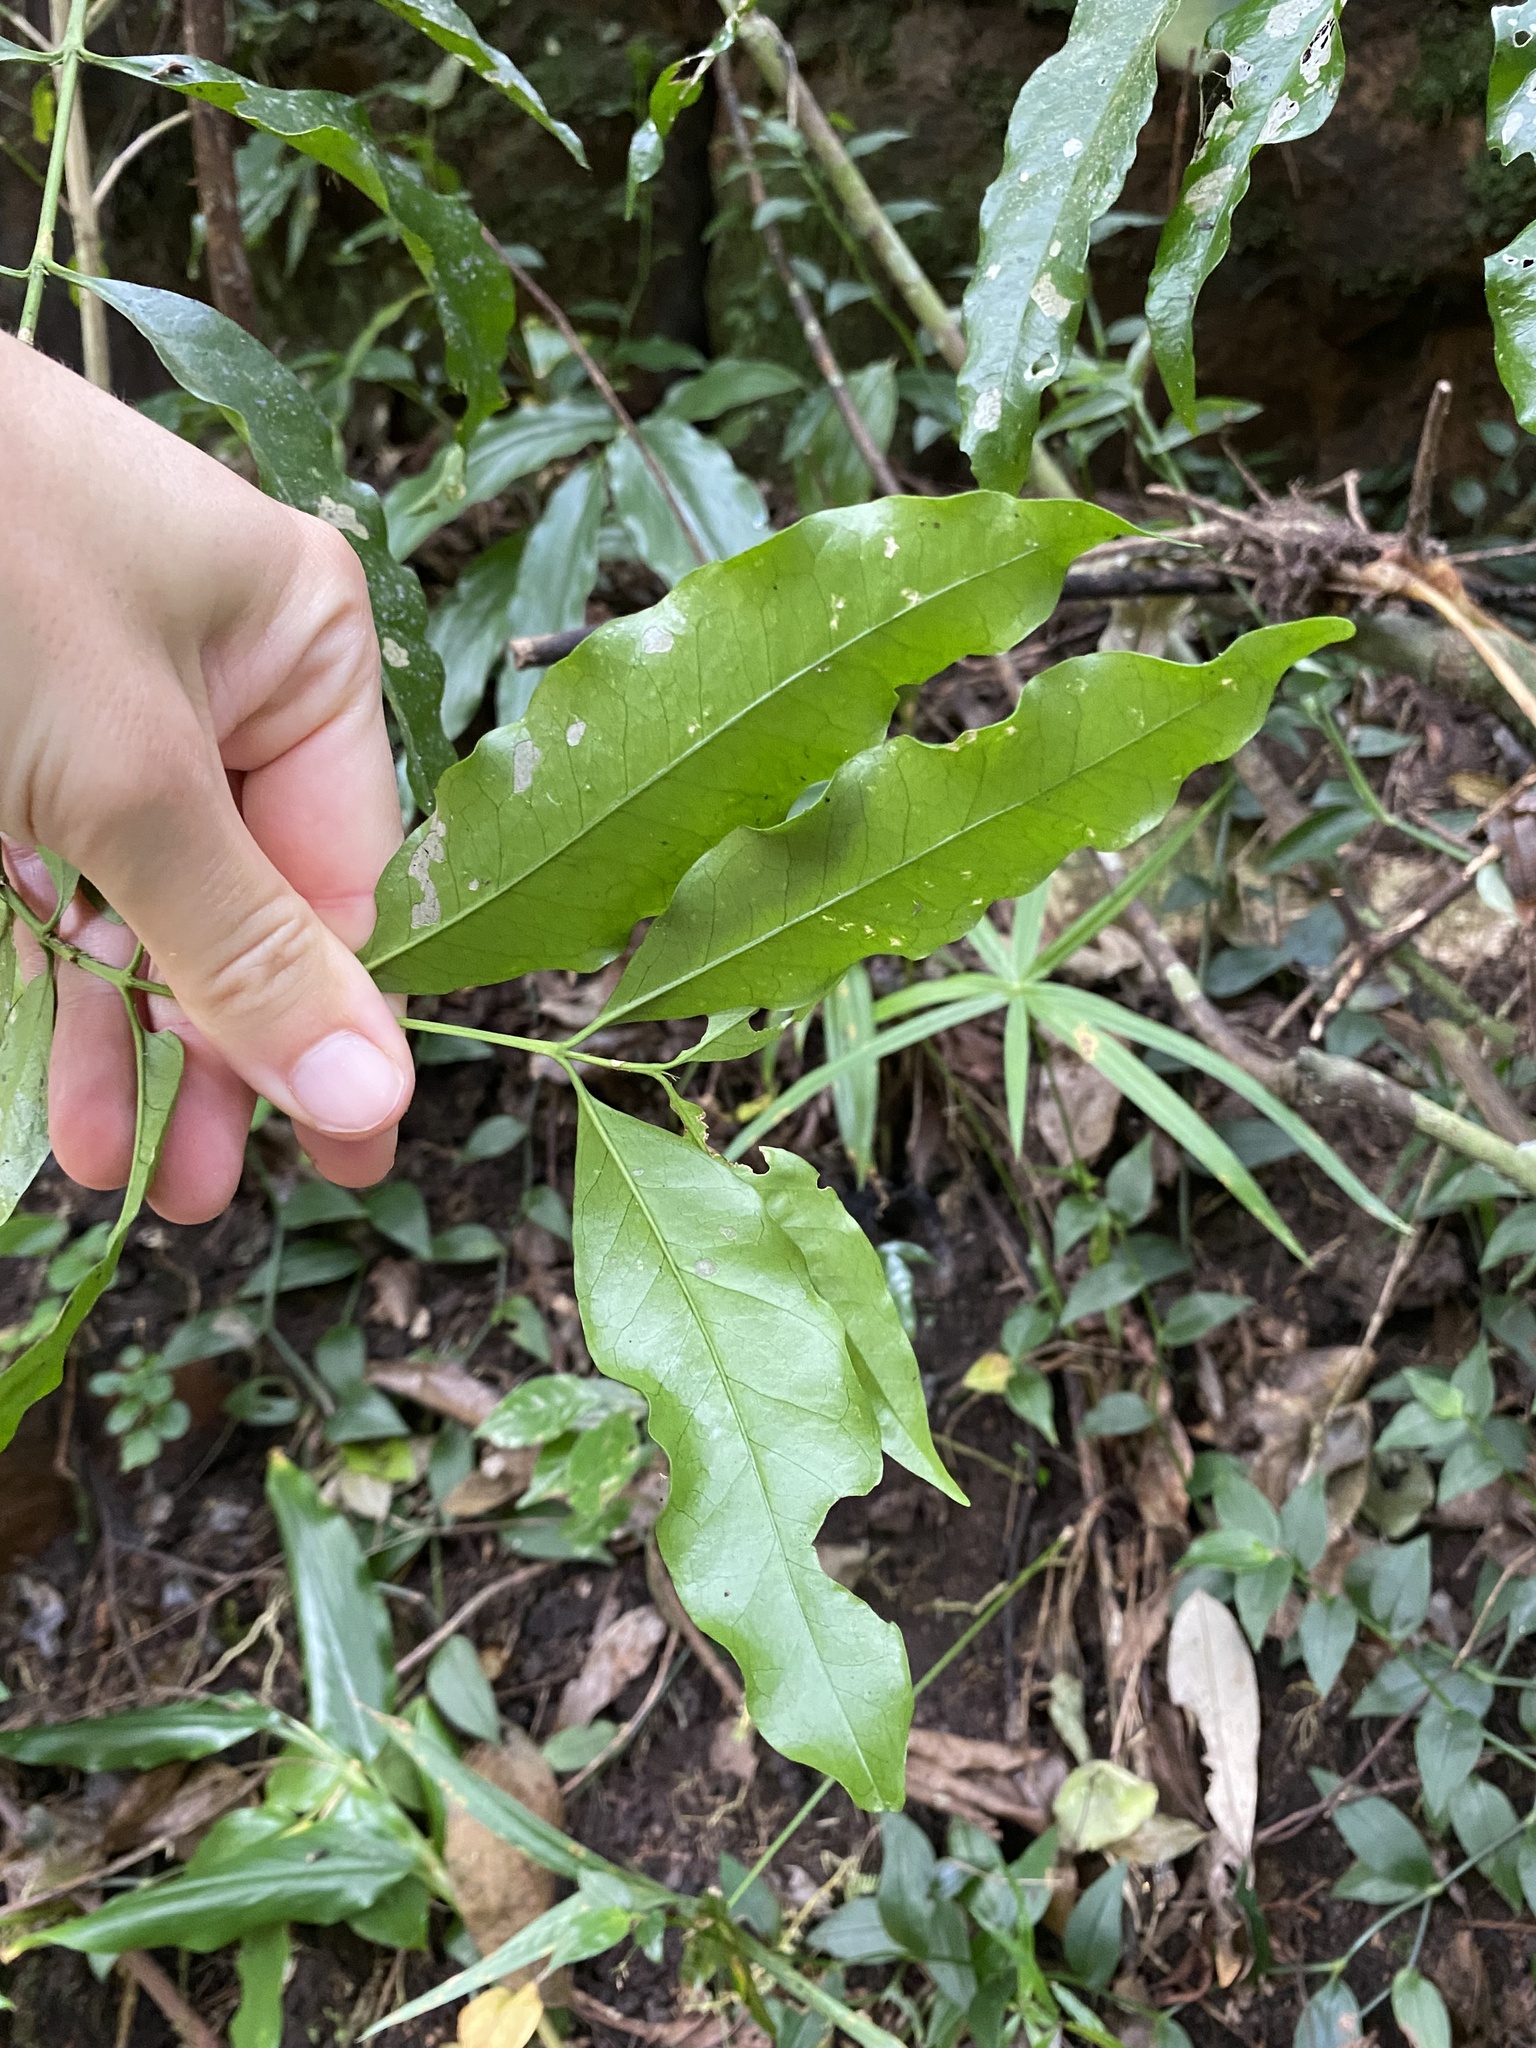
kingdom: Plantae
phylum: Tracheophyta
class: Magnoliopsida
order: Gentianales
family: Rubiaceae
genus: Empogona
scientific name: Empogona lanceolata
